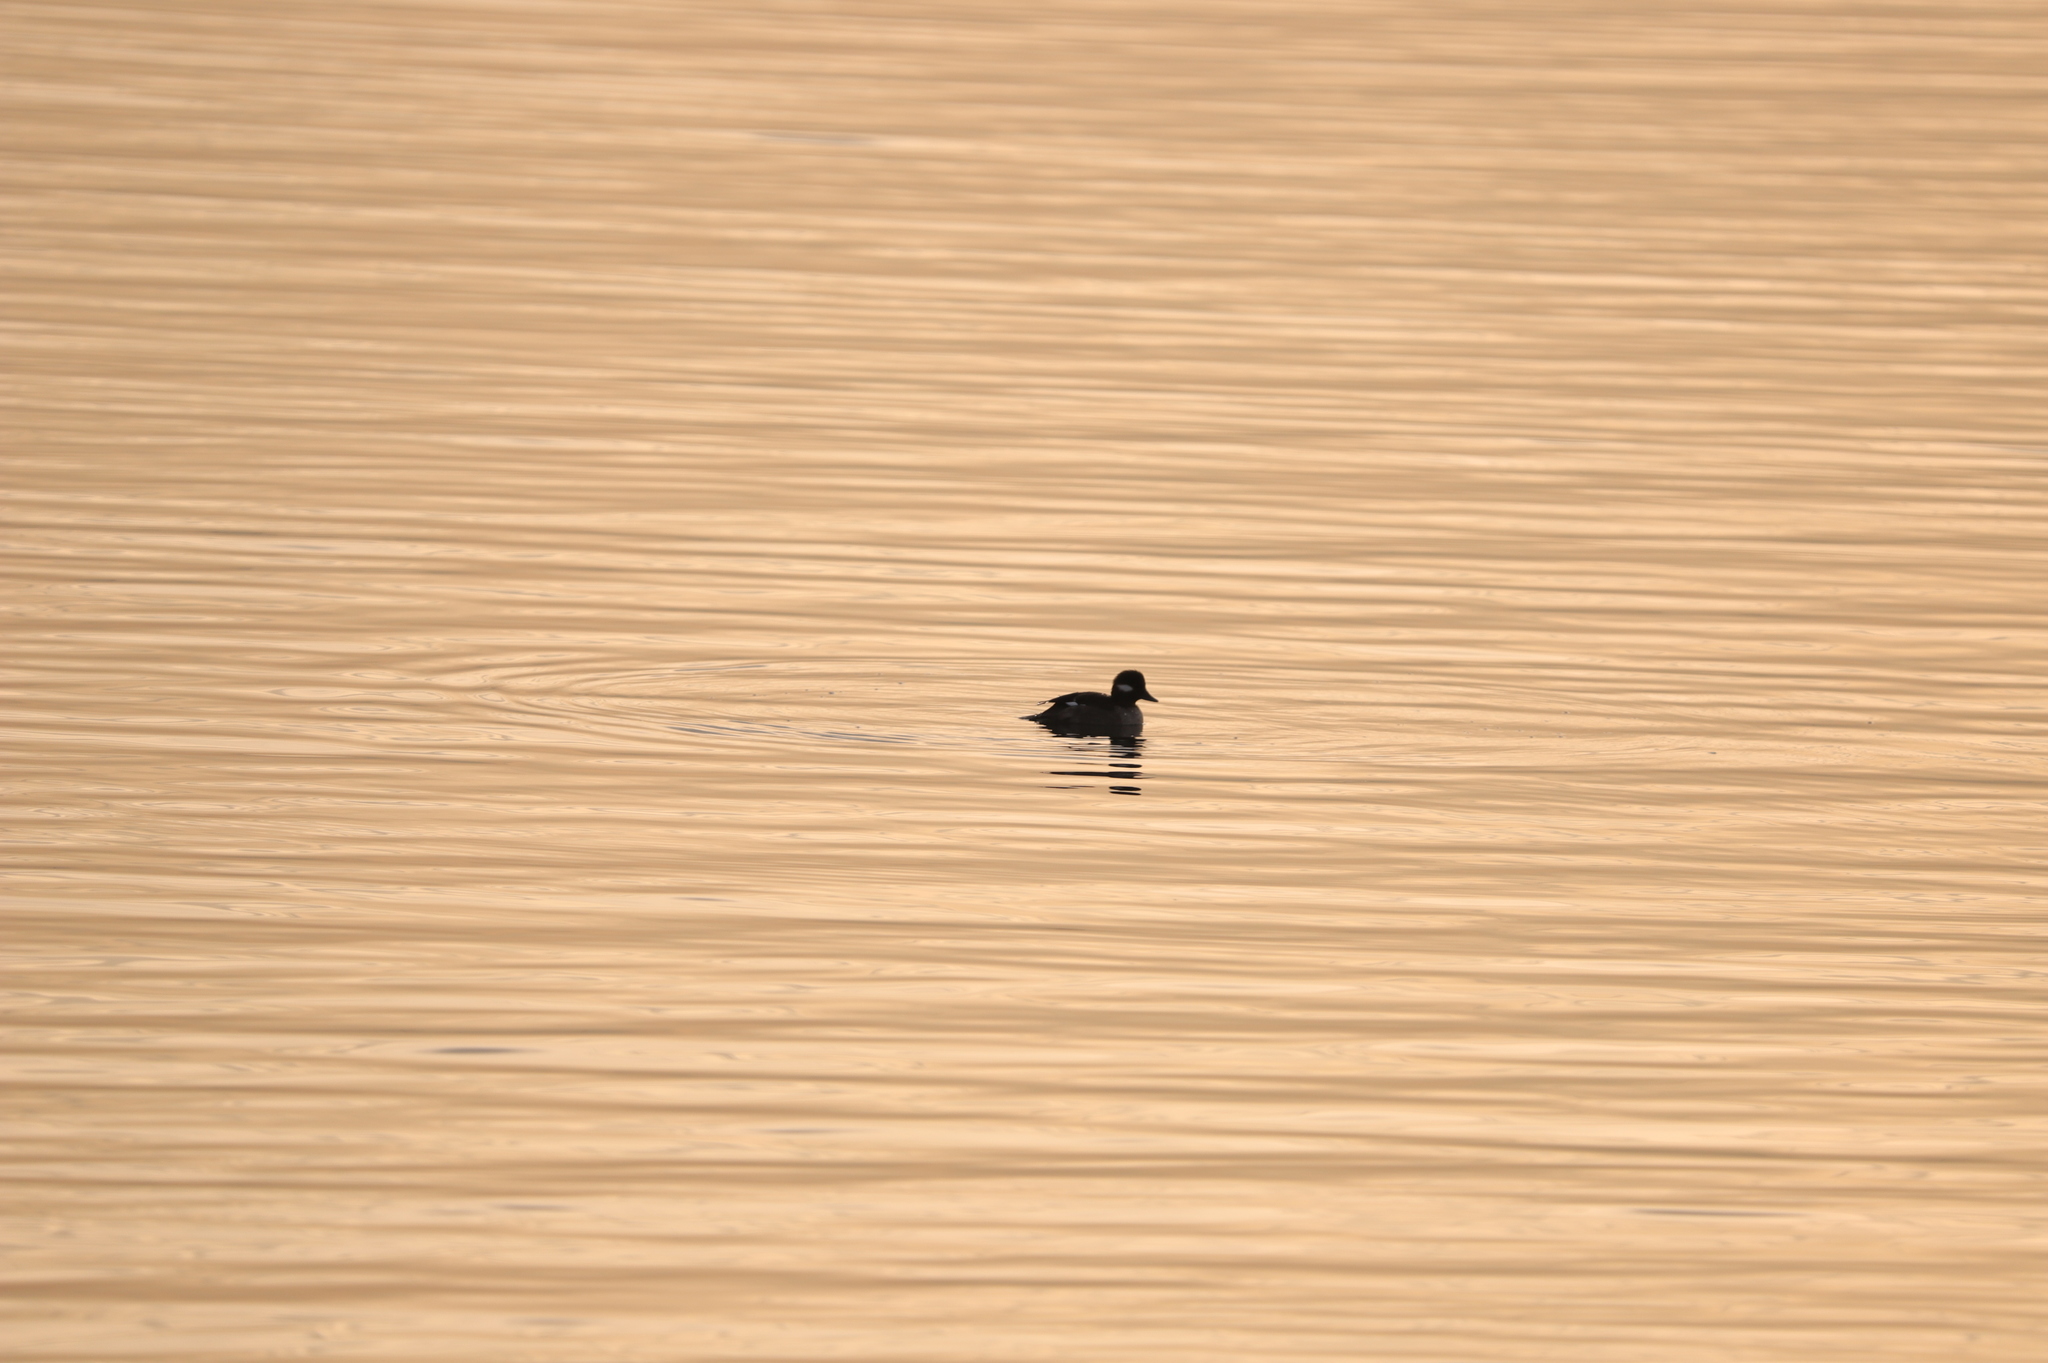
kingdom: Animalia
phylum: Chordata
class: Aves
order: Anseriformes
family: Anatidae
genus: Bucephala
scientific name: Bucephala albeola
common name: Bufflehead
